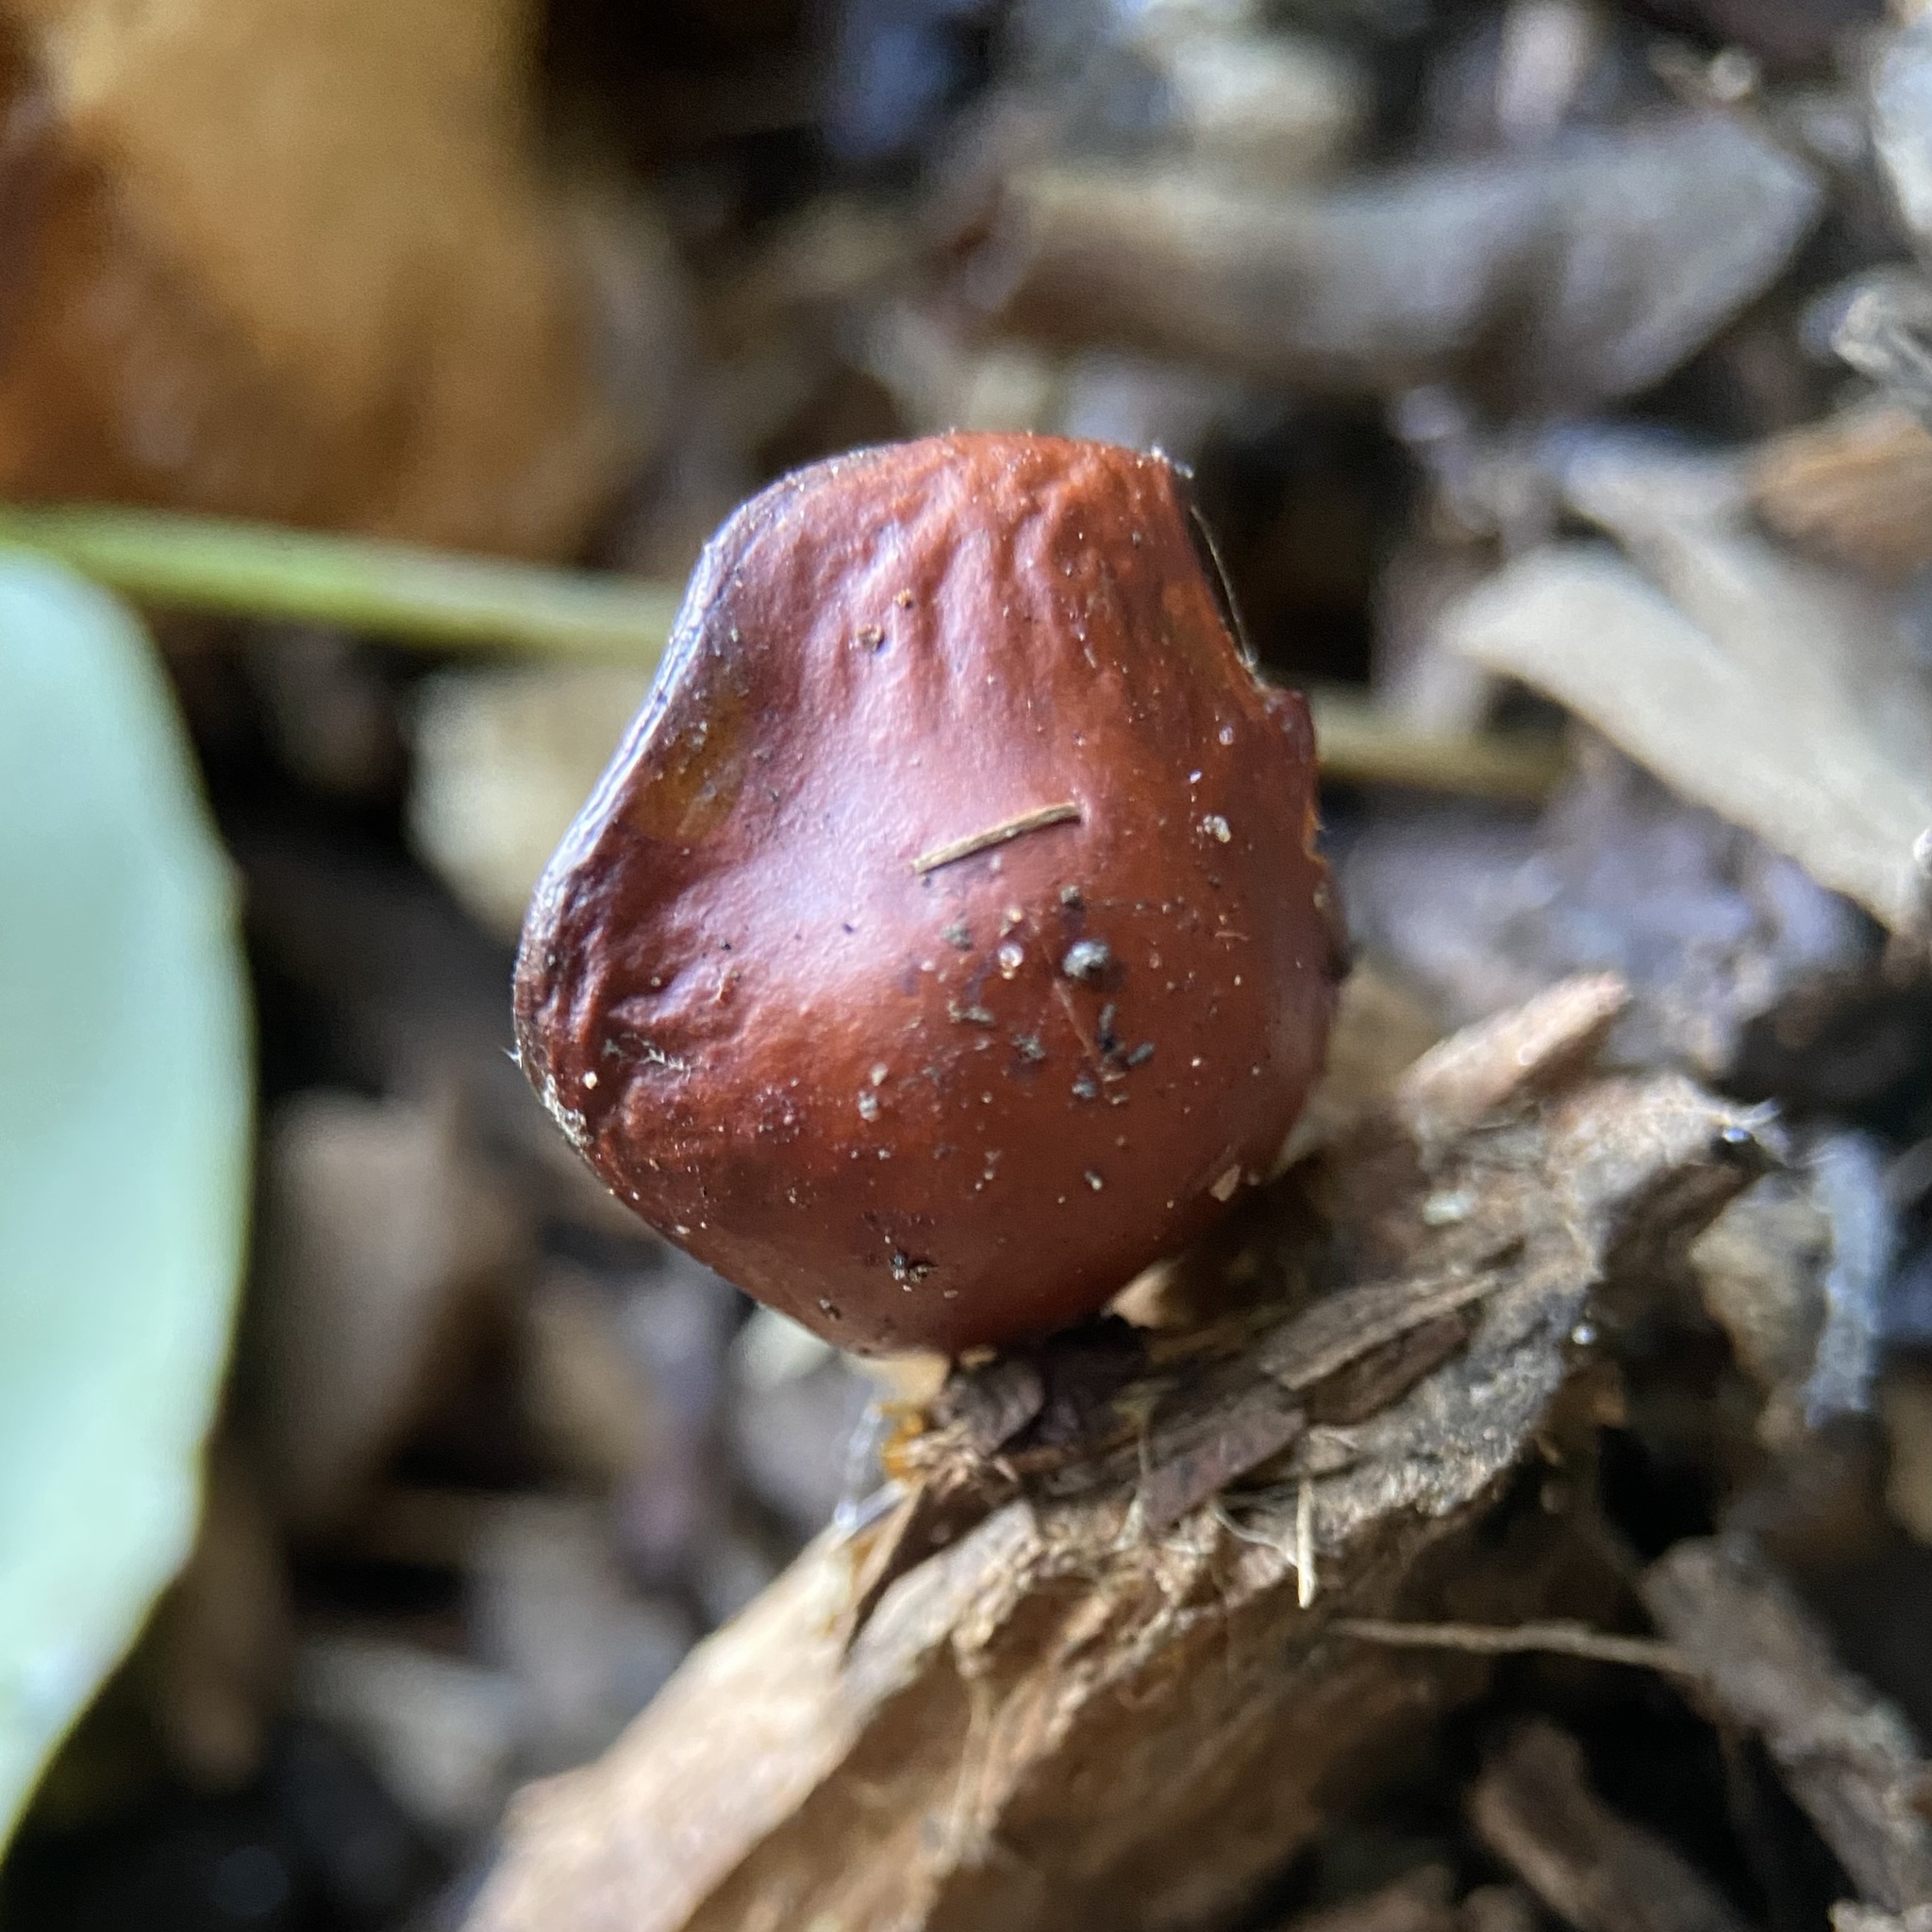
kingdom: Fungi
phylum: Basidiomycota
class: Agaricomycetes
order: Agaricales
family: Strophariaceae
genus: Leratiomyces
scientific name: Leratiomyces ceres
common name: Redlead roundhead
